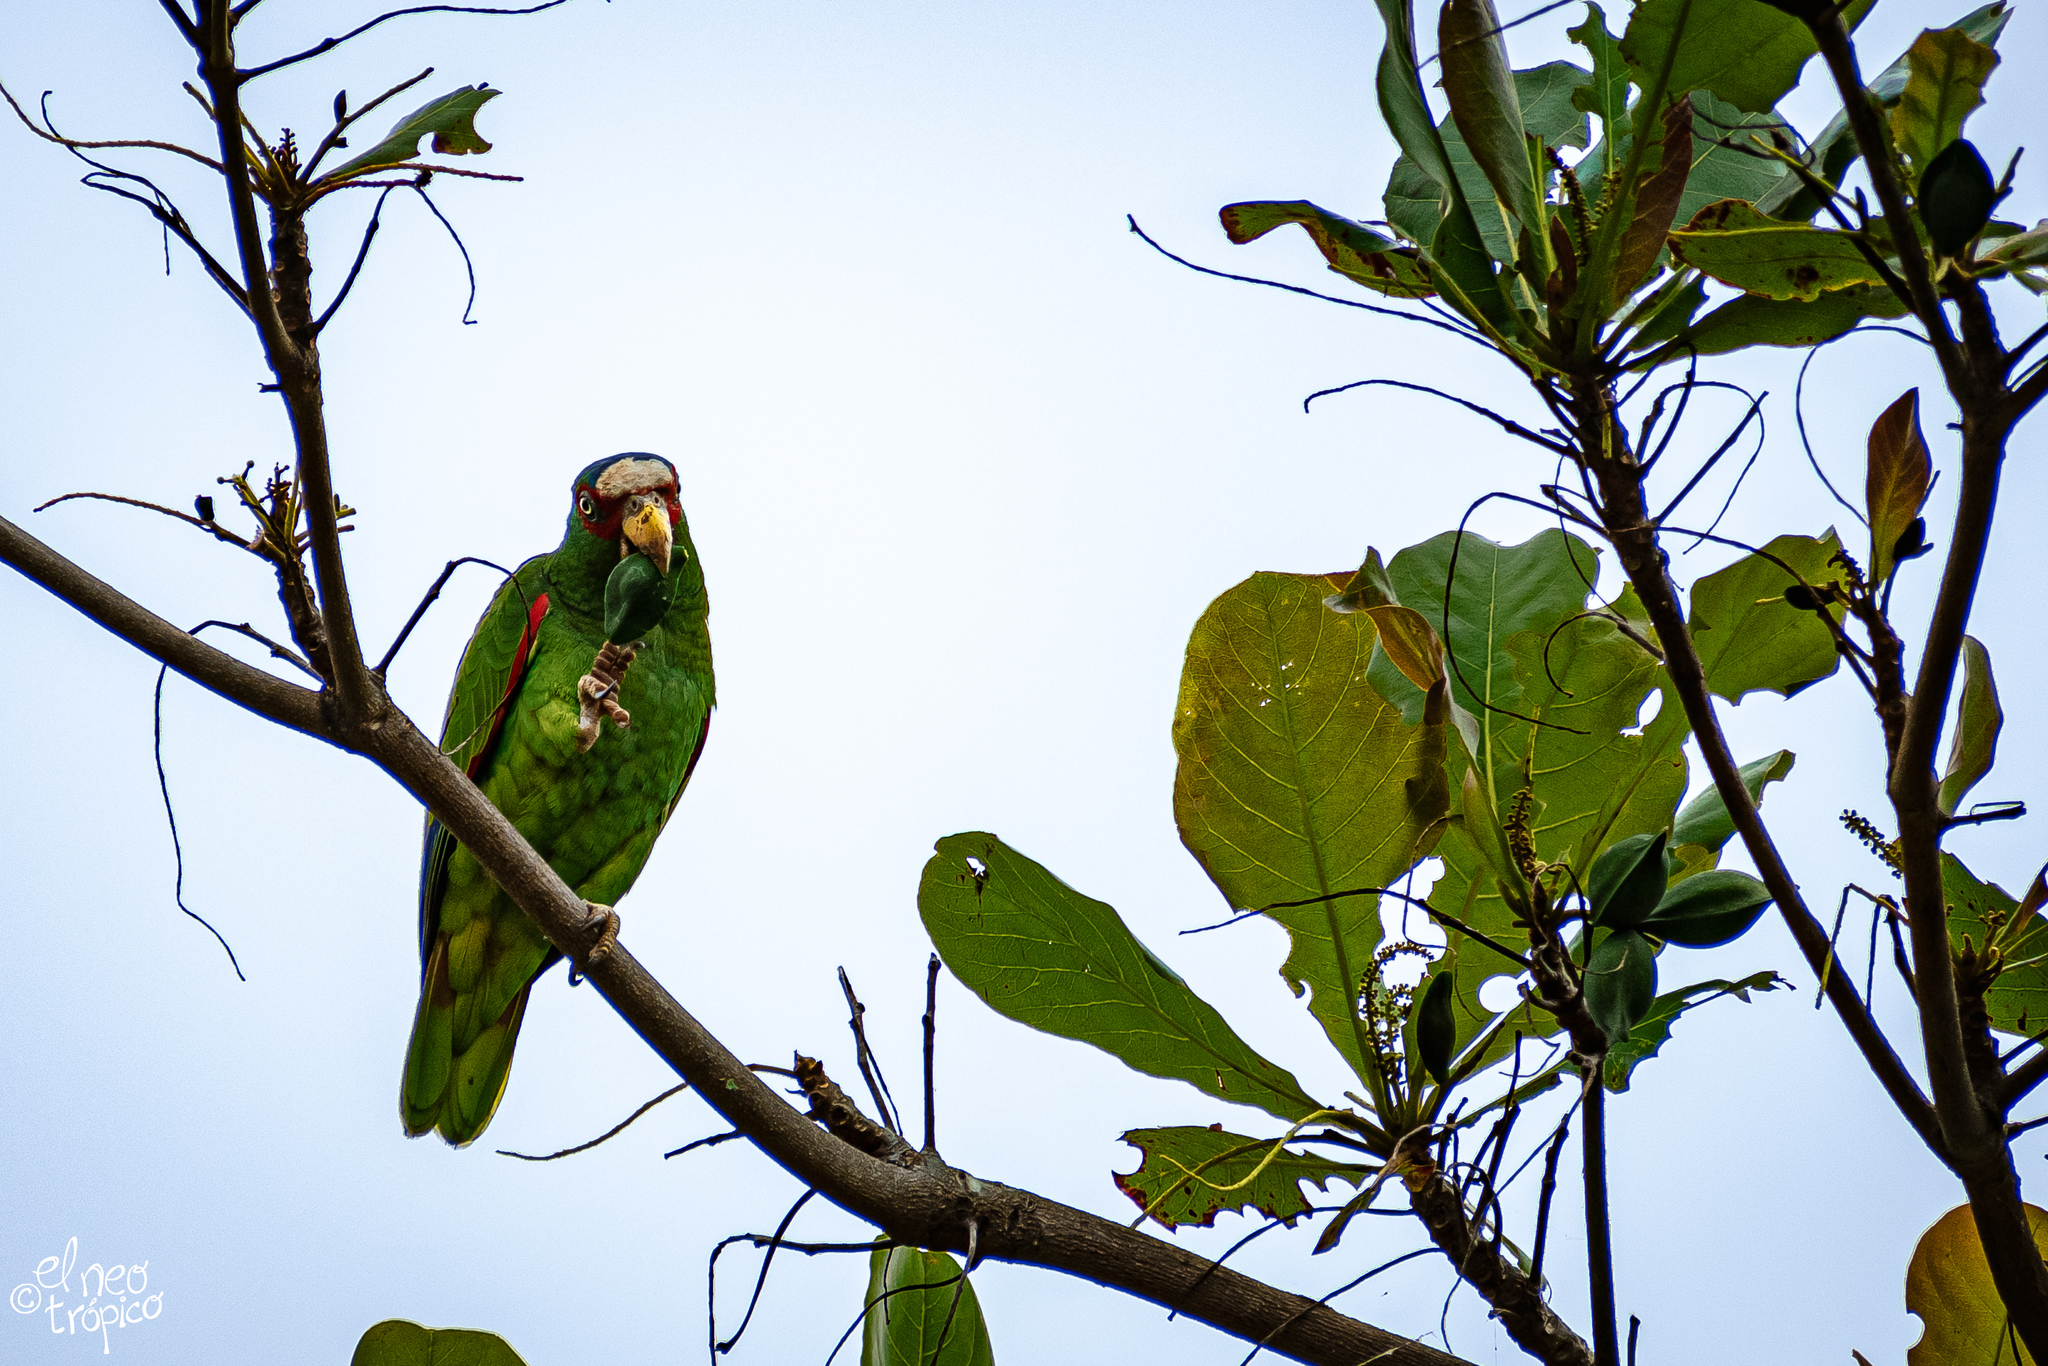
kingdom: Animalia
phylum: Chordata
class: Aves
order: Psittaciformes
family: Psittacidae
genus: Amazona
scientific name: Amazona albifrons
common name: White-fronted amazon
